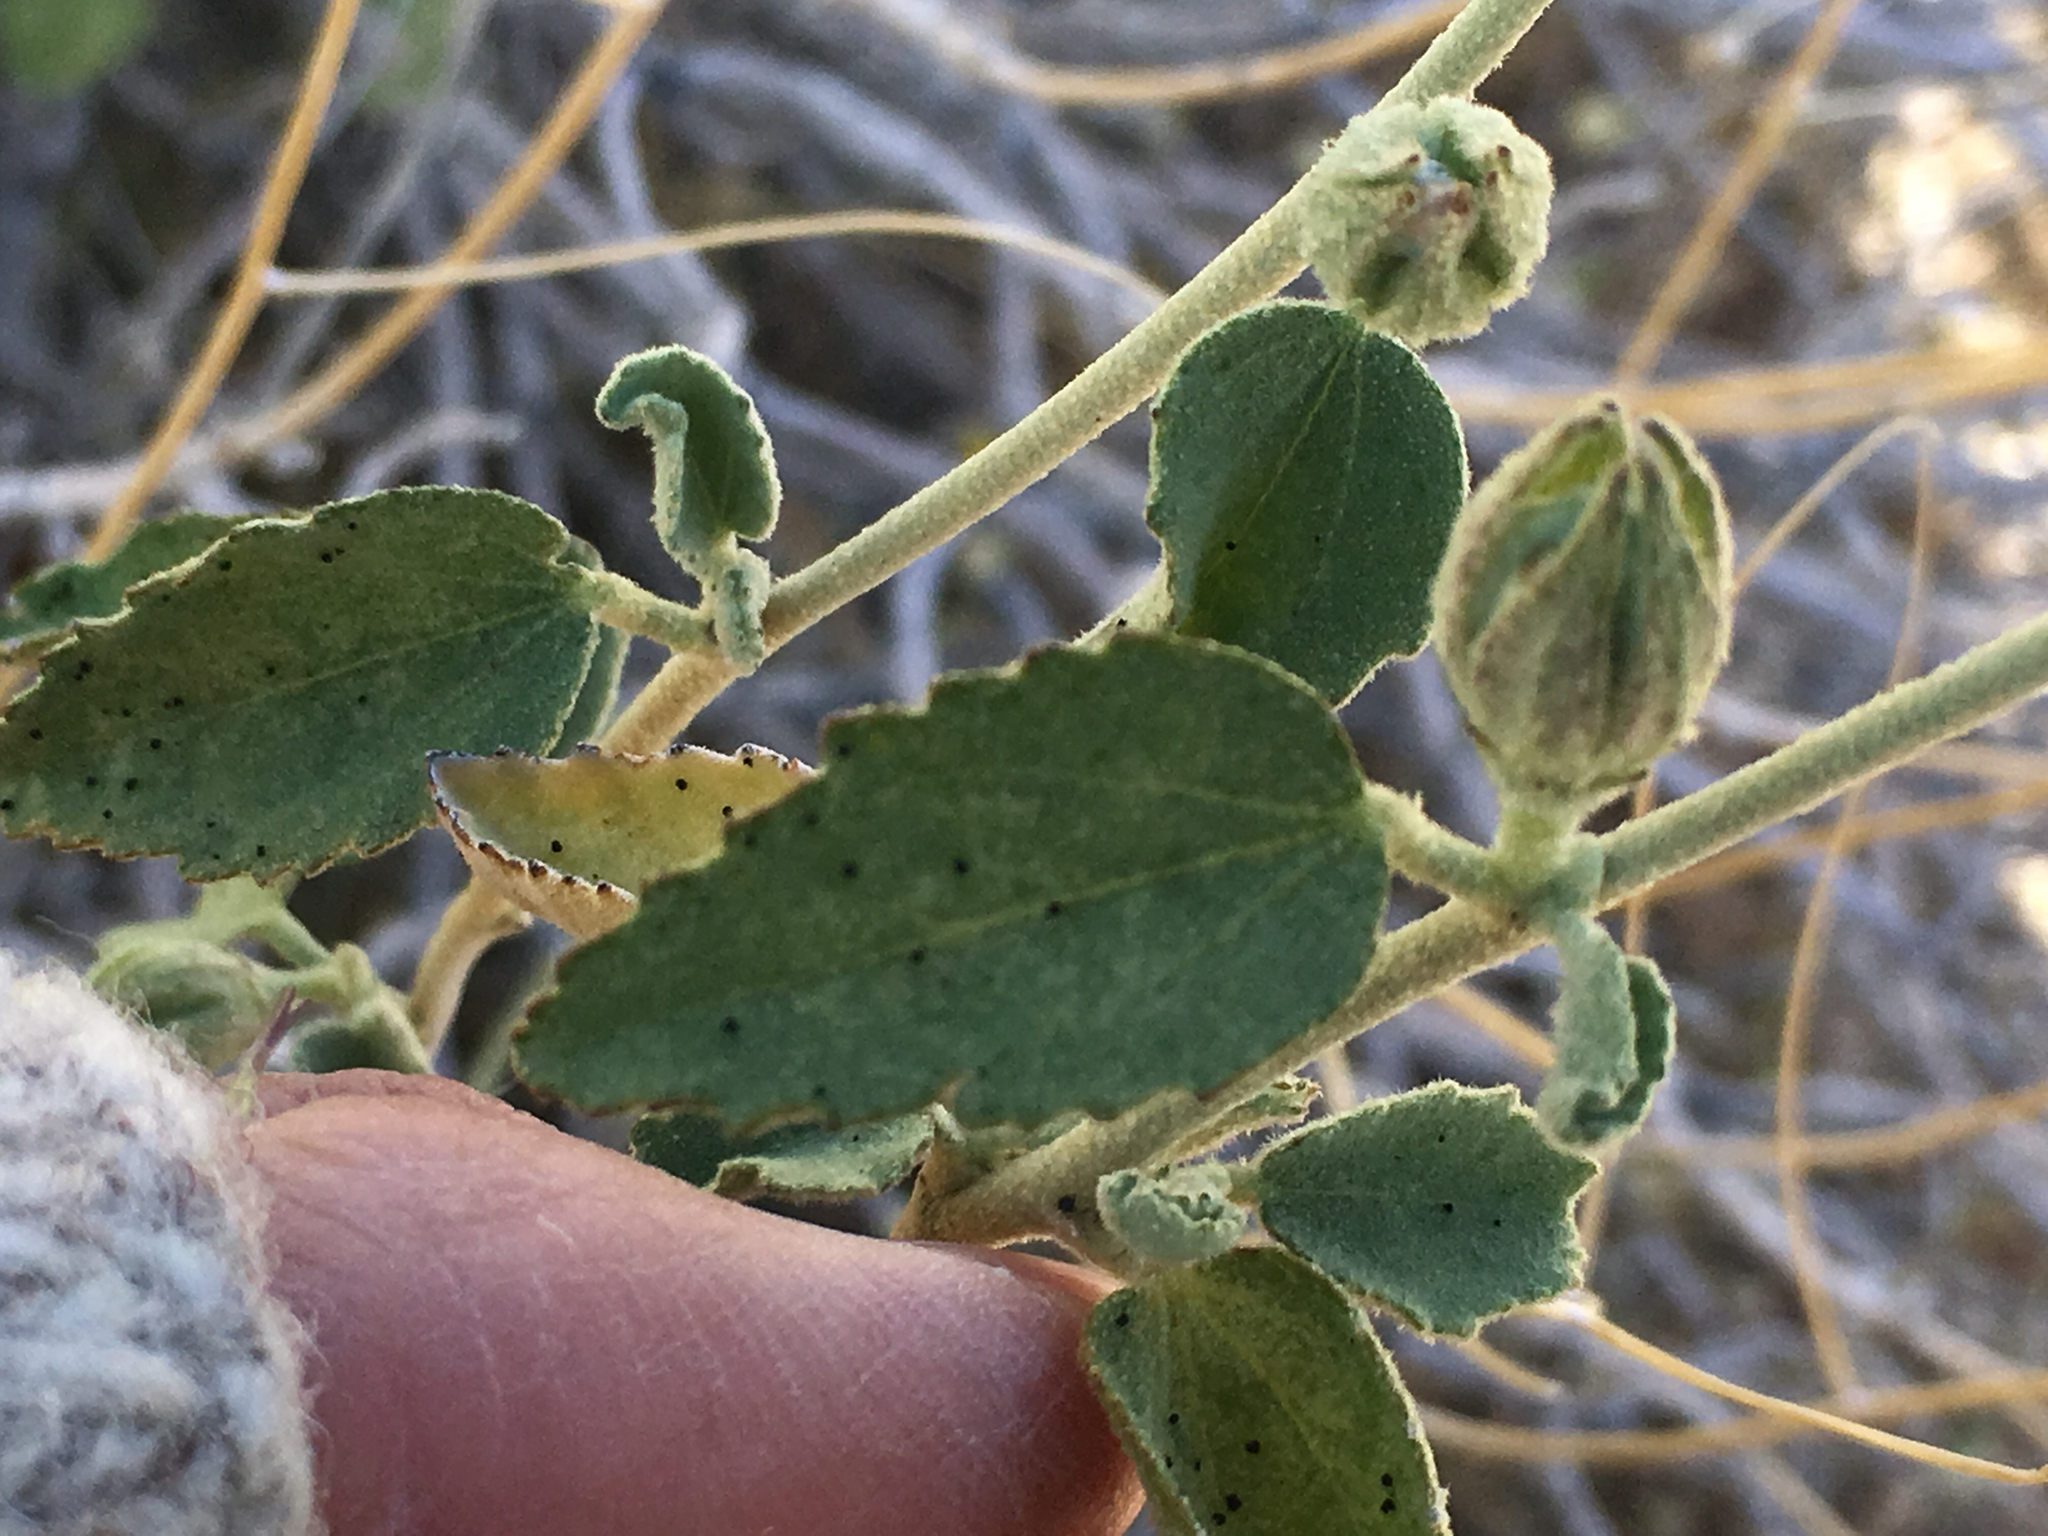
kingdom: Plantae
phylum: Tracheophyta
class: Magnoliopsida
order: Malvales
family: Malvaceae
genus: Hibiscus
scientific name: Hibiscus denudatus
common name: Paleface
